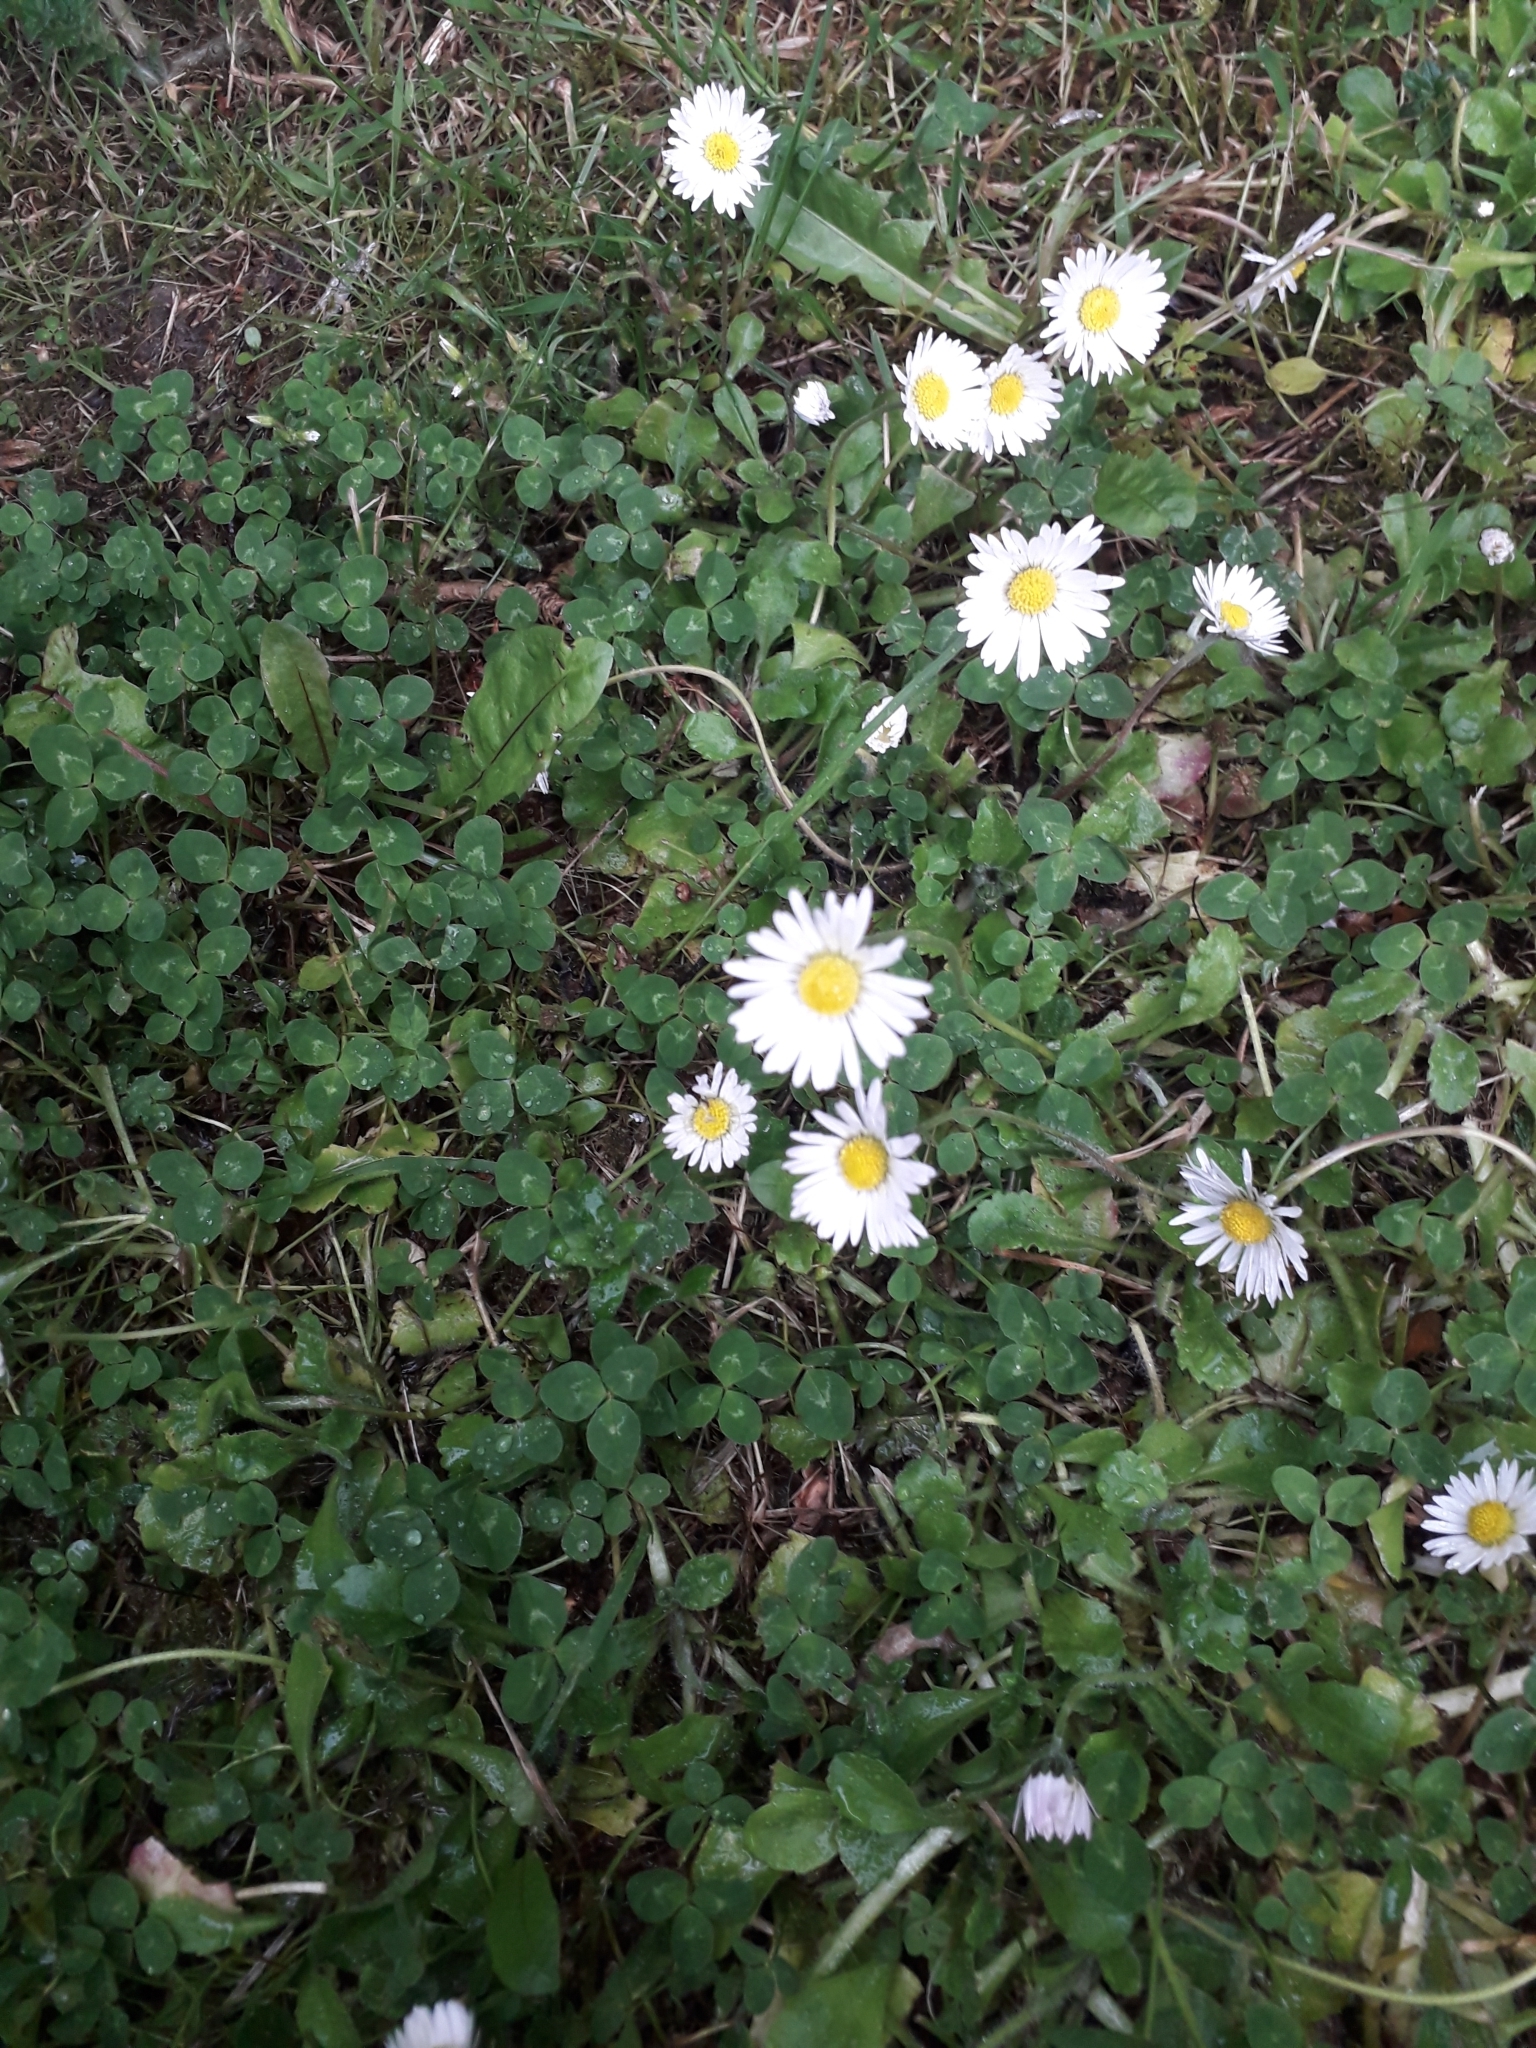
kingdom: Plantae
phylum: Tracheophyta
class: Magnoliopsida
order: Asterales
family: Asteraceae
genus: Bellis
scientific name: Bellis perennis
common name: Lawndaisy
